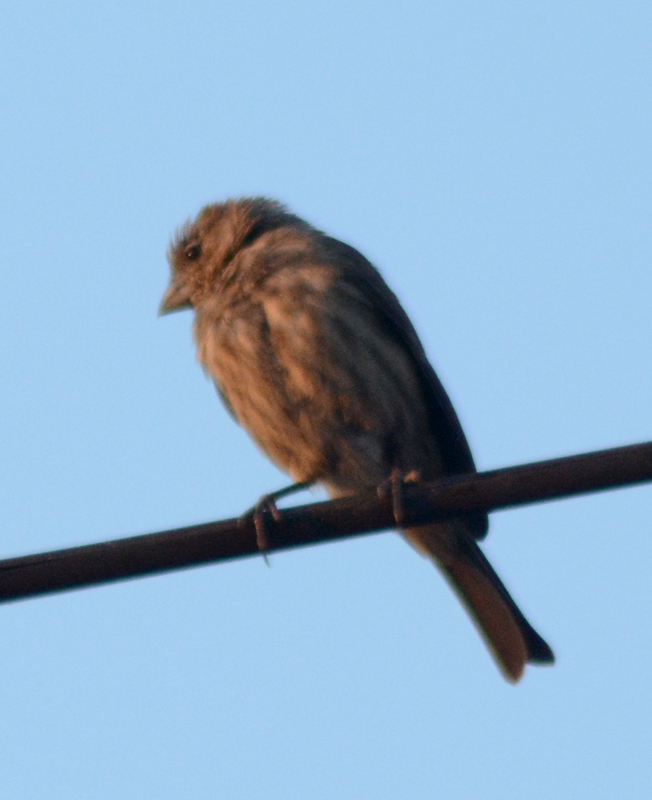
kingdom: Animalia
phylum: Chordata
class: Aves
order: Passeriformes
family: Fringillidae
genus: Haemorhous
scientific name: Haemorhous mexicanus
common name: House finch
